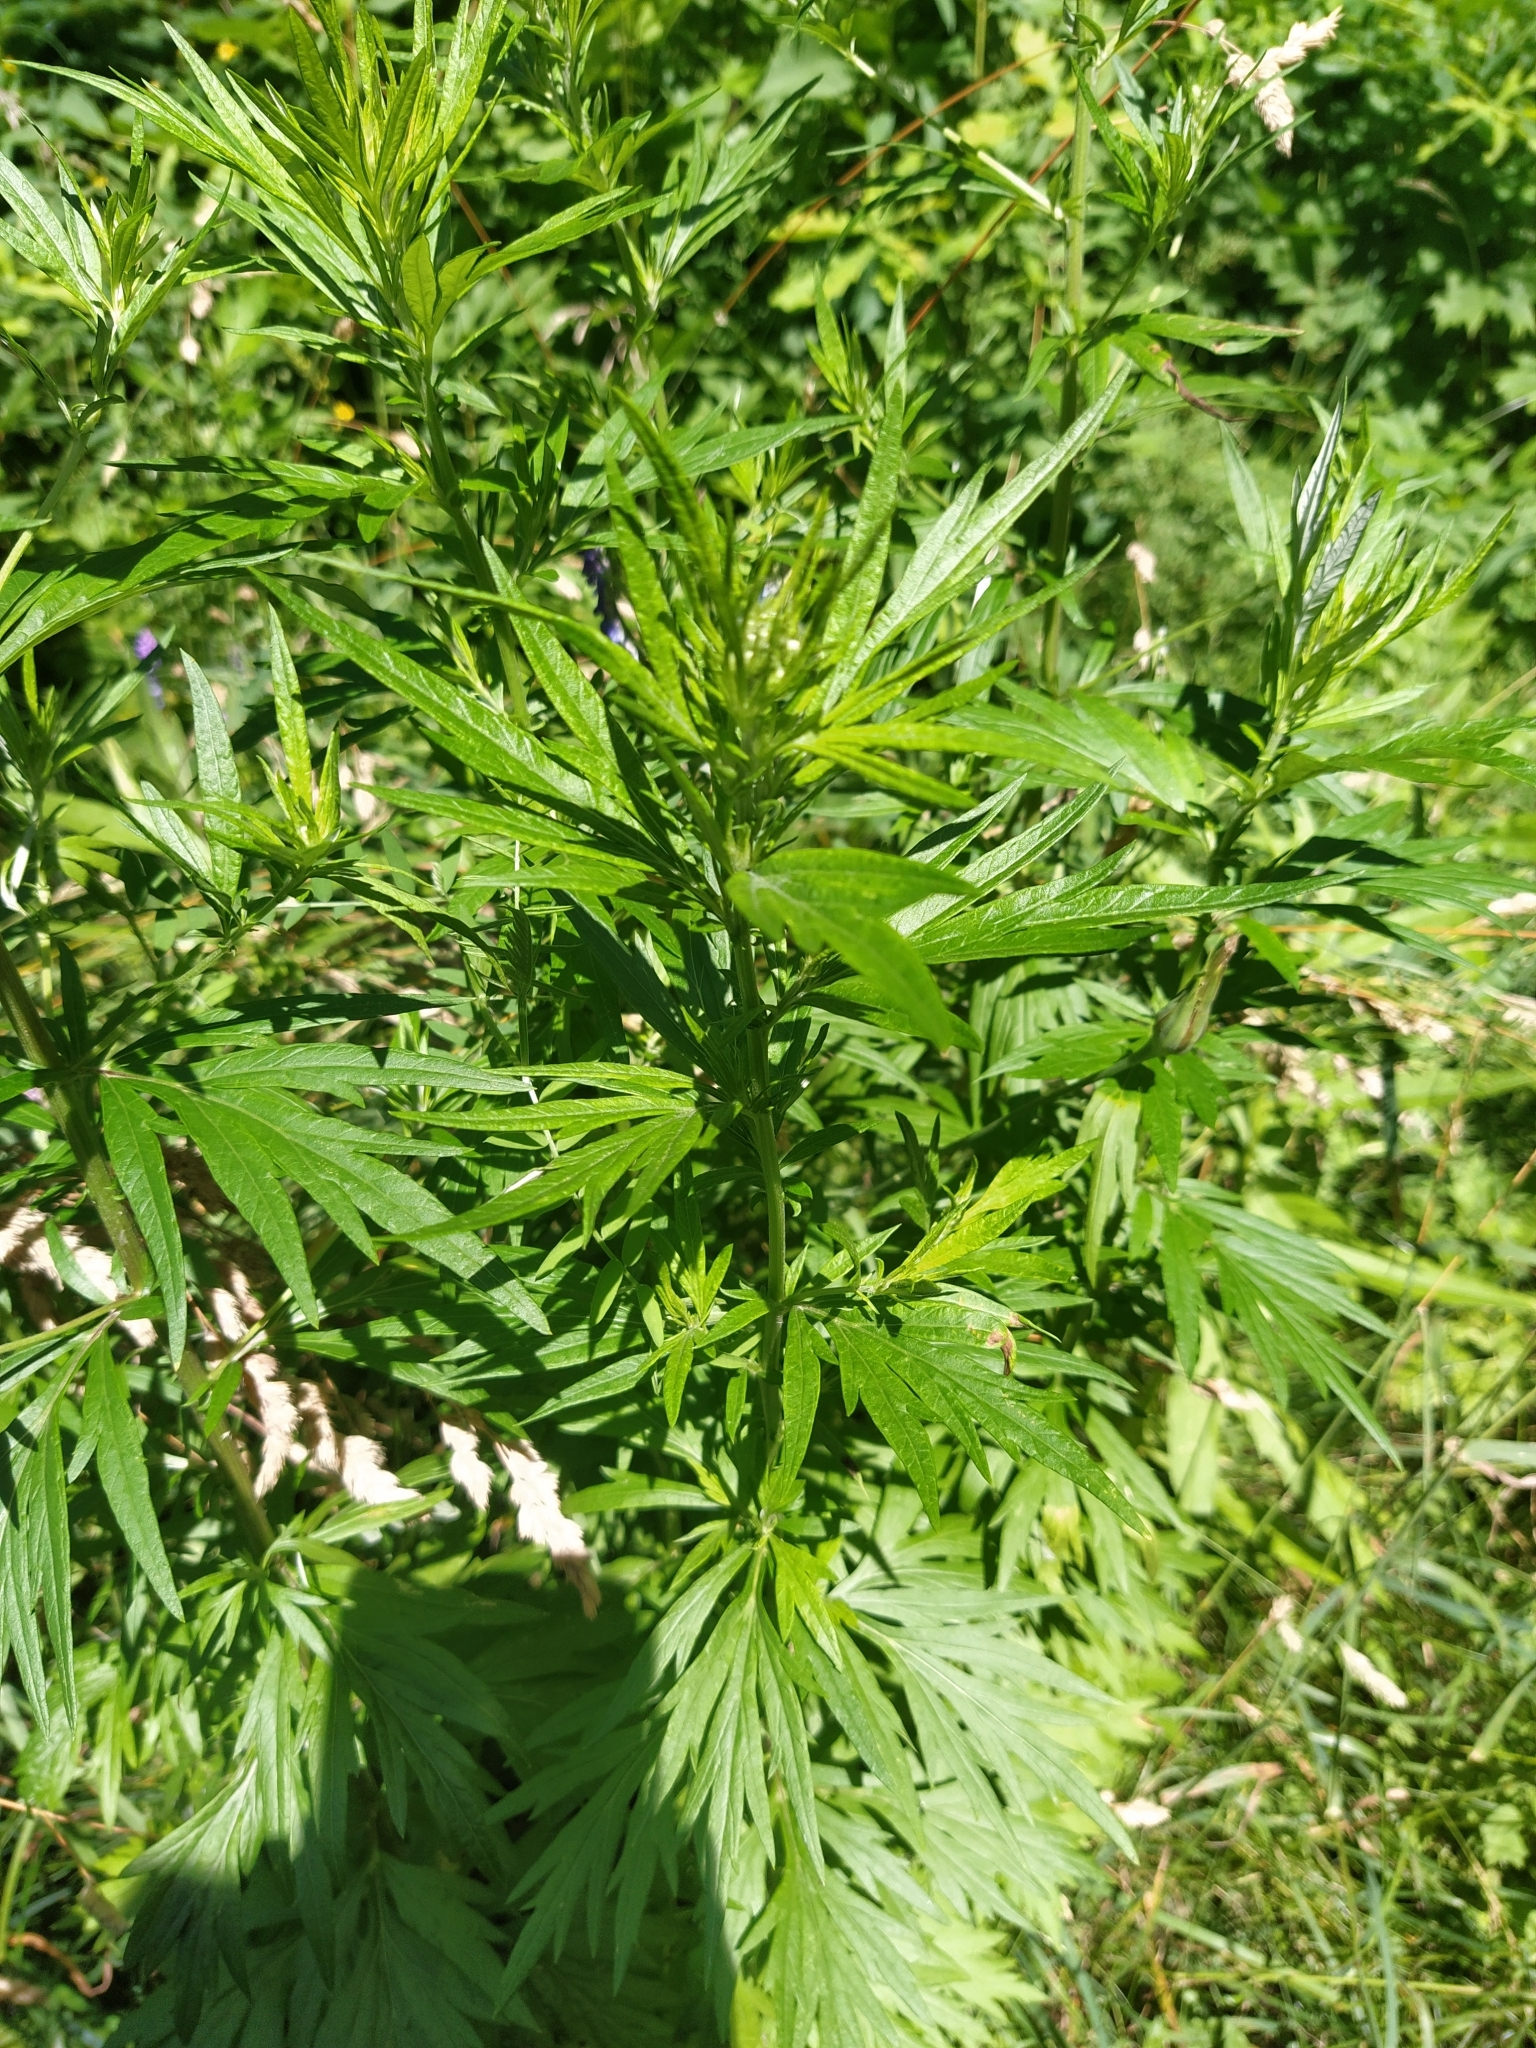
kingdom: Plantae
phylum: Tracheophyta
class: Magnoliopsida
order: Asterales
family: Asteraceae
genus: Artemisia
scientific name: Artemisia vulgaris
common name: Mugwort
